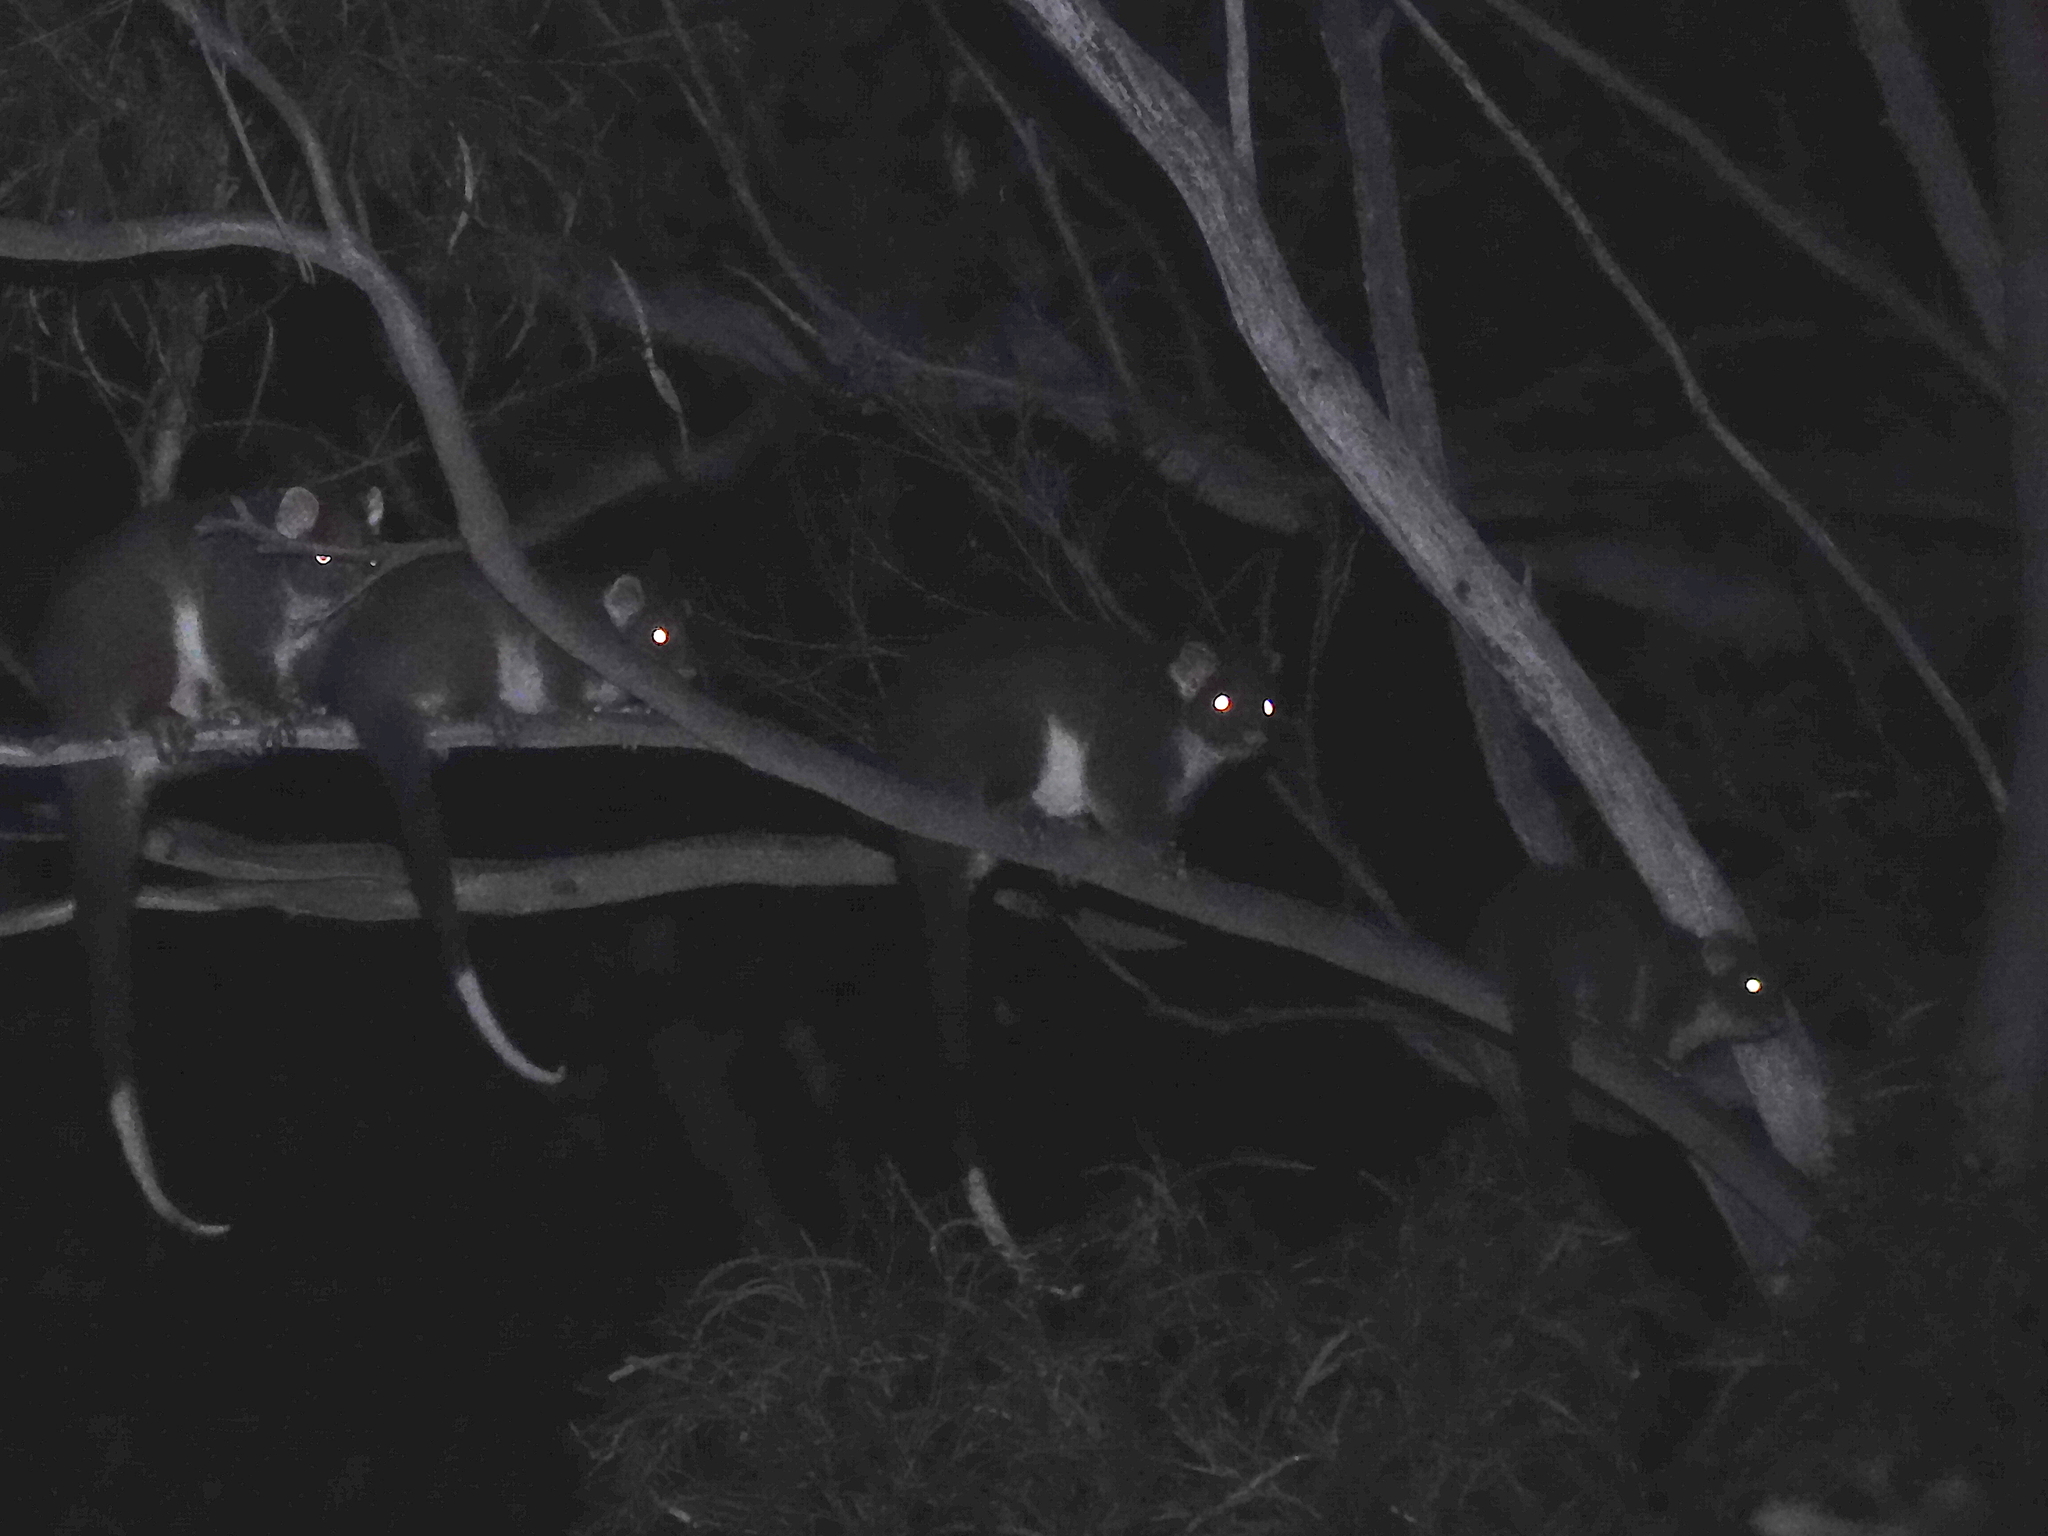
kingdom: Animalia
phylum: Chordata
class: Mammalia
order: Diprotodontia
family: Pseudocheiridae
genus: Pseudocheirus
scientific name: Pseudocheirus peregrinus
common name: Common ringtail possum
